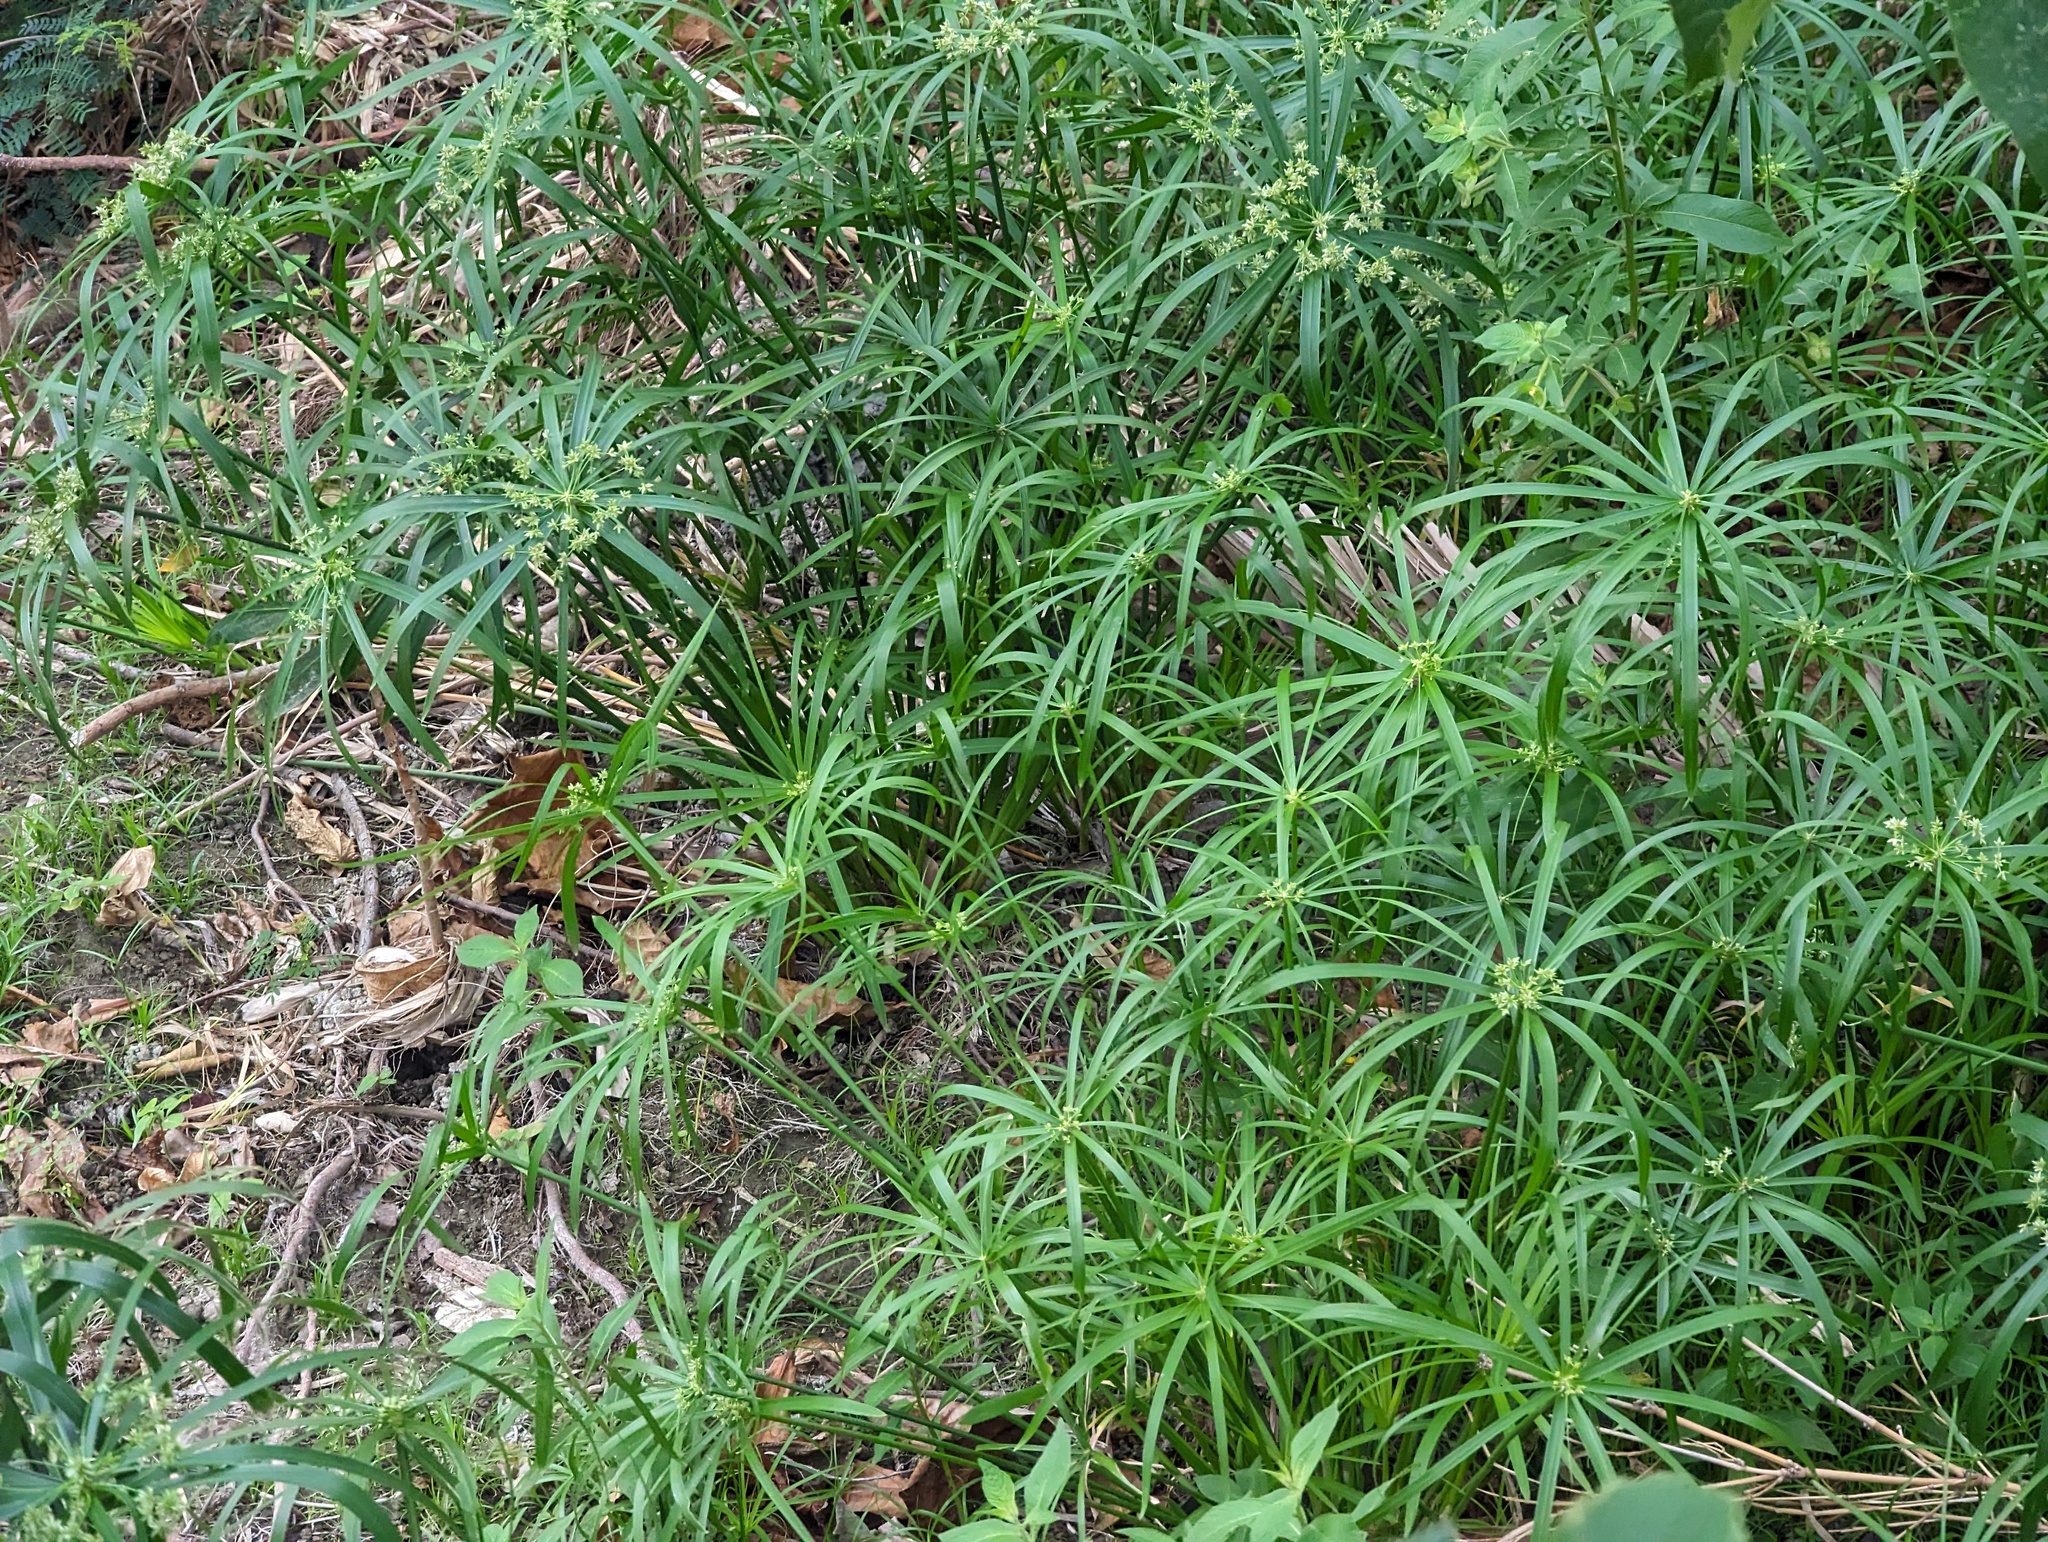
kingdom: Plantae
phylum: Tracheophyta
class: Liliopsida
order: Poales
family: Cyperaceae
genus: Cyperus
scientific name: Cyperus alternifolius
